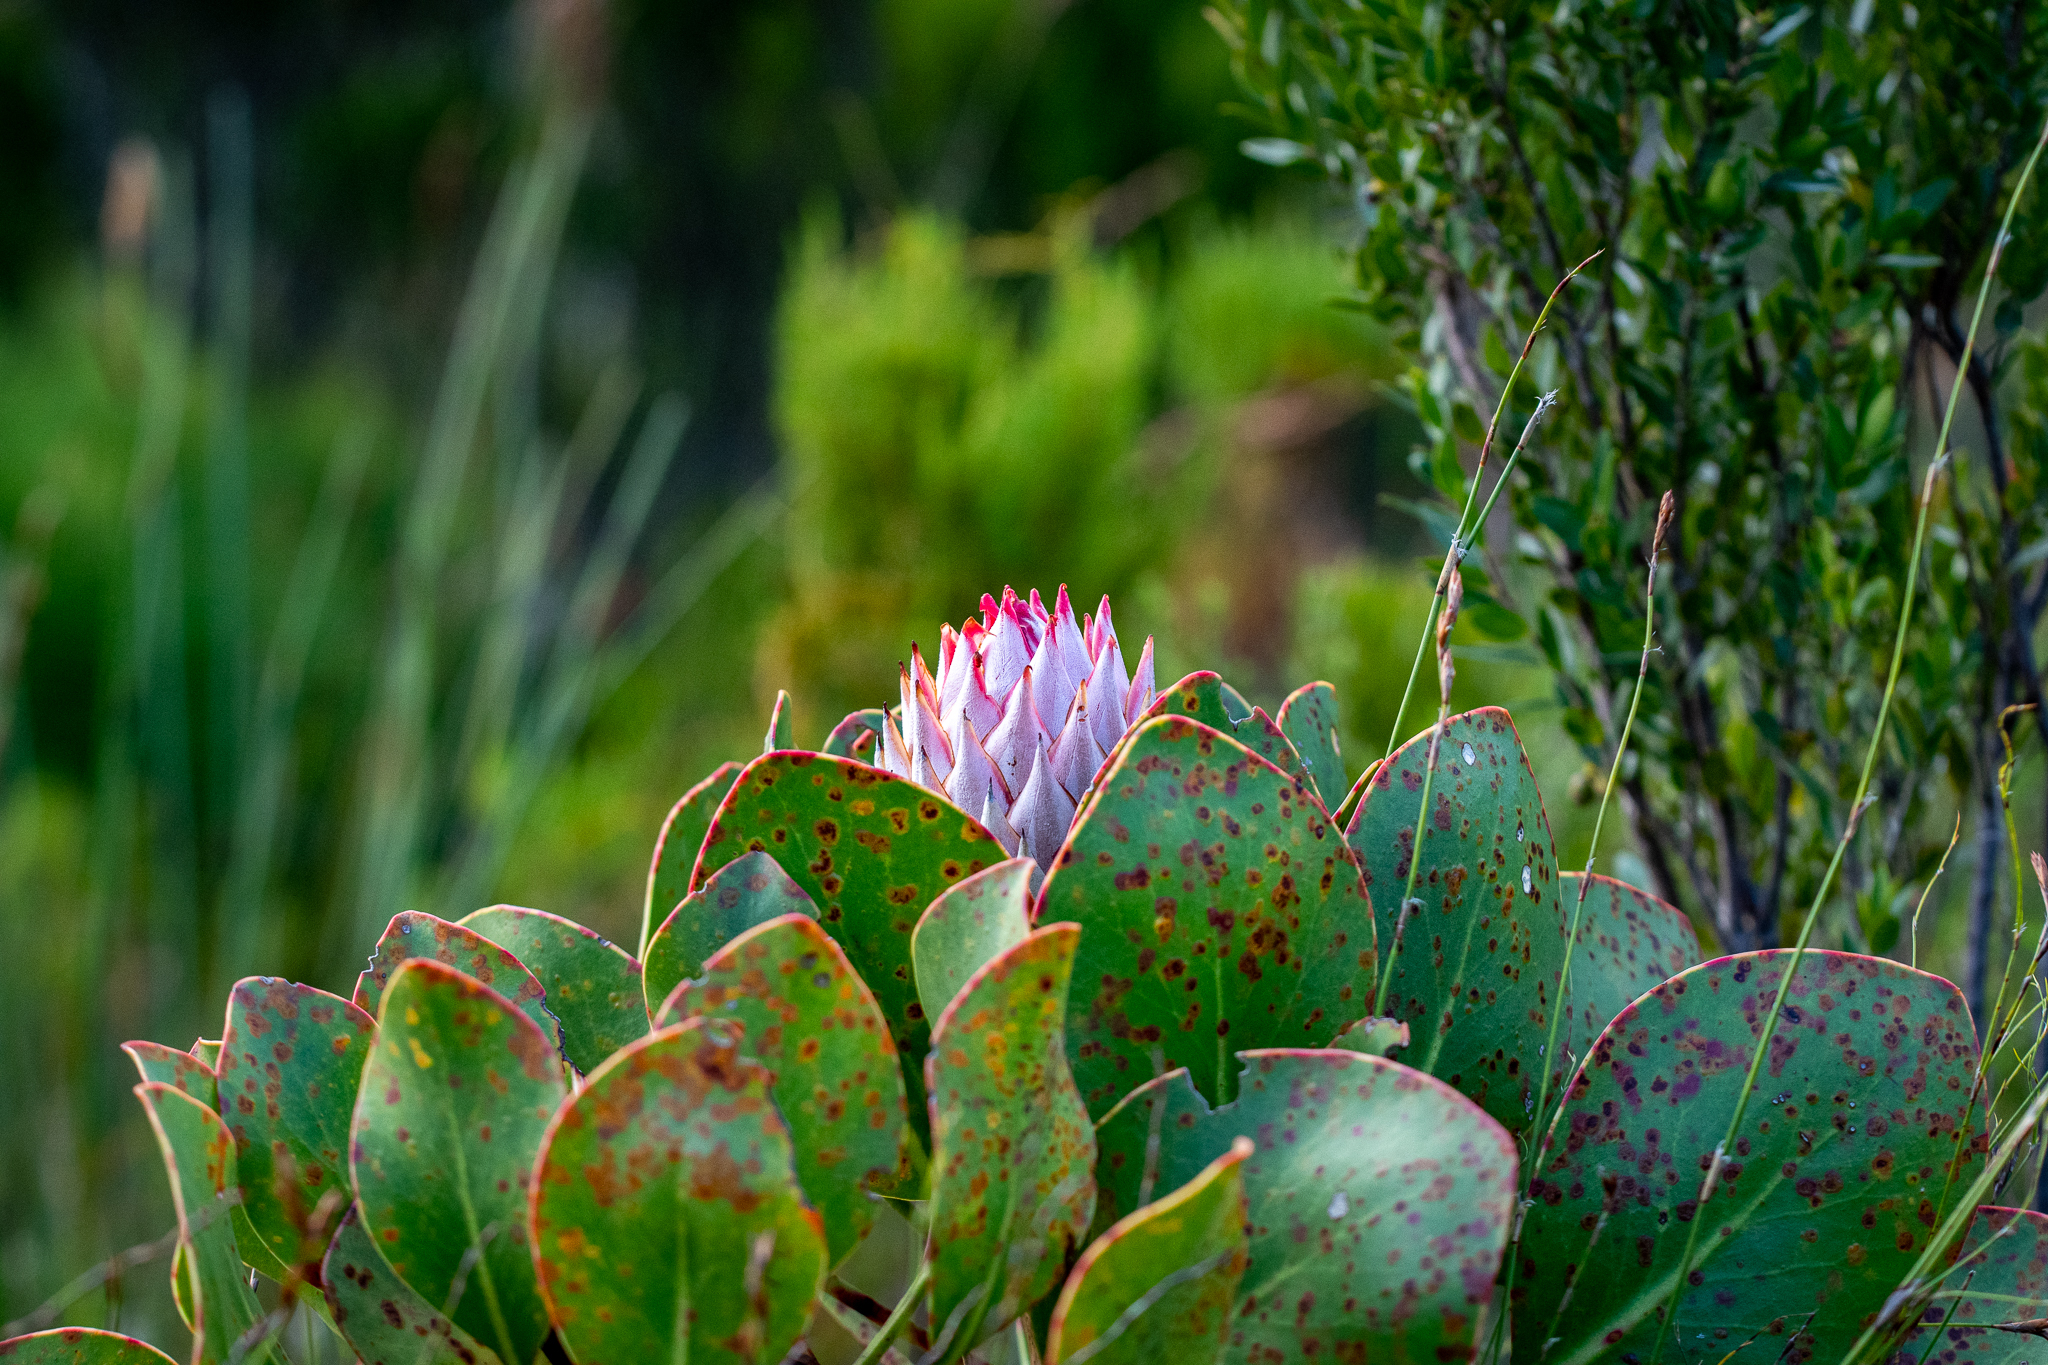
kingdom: Plantae
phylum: Tracheophyta
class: Magnoliopsida
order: Proteales
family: Proteaceae
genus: Protea
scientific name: Protea cynaroides
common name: King protea
